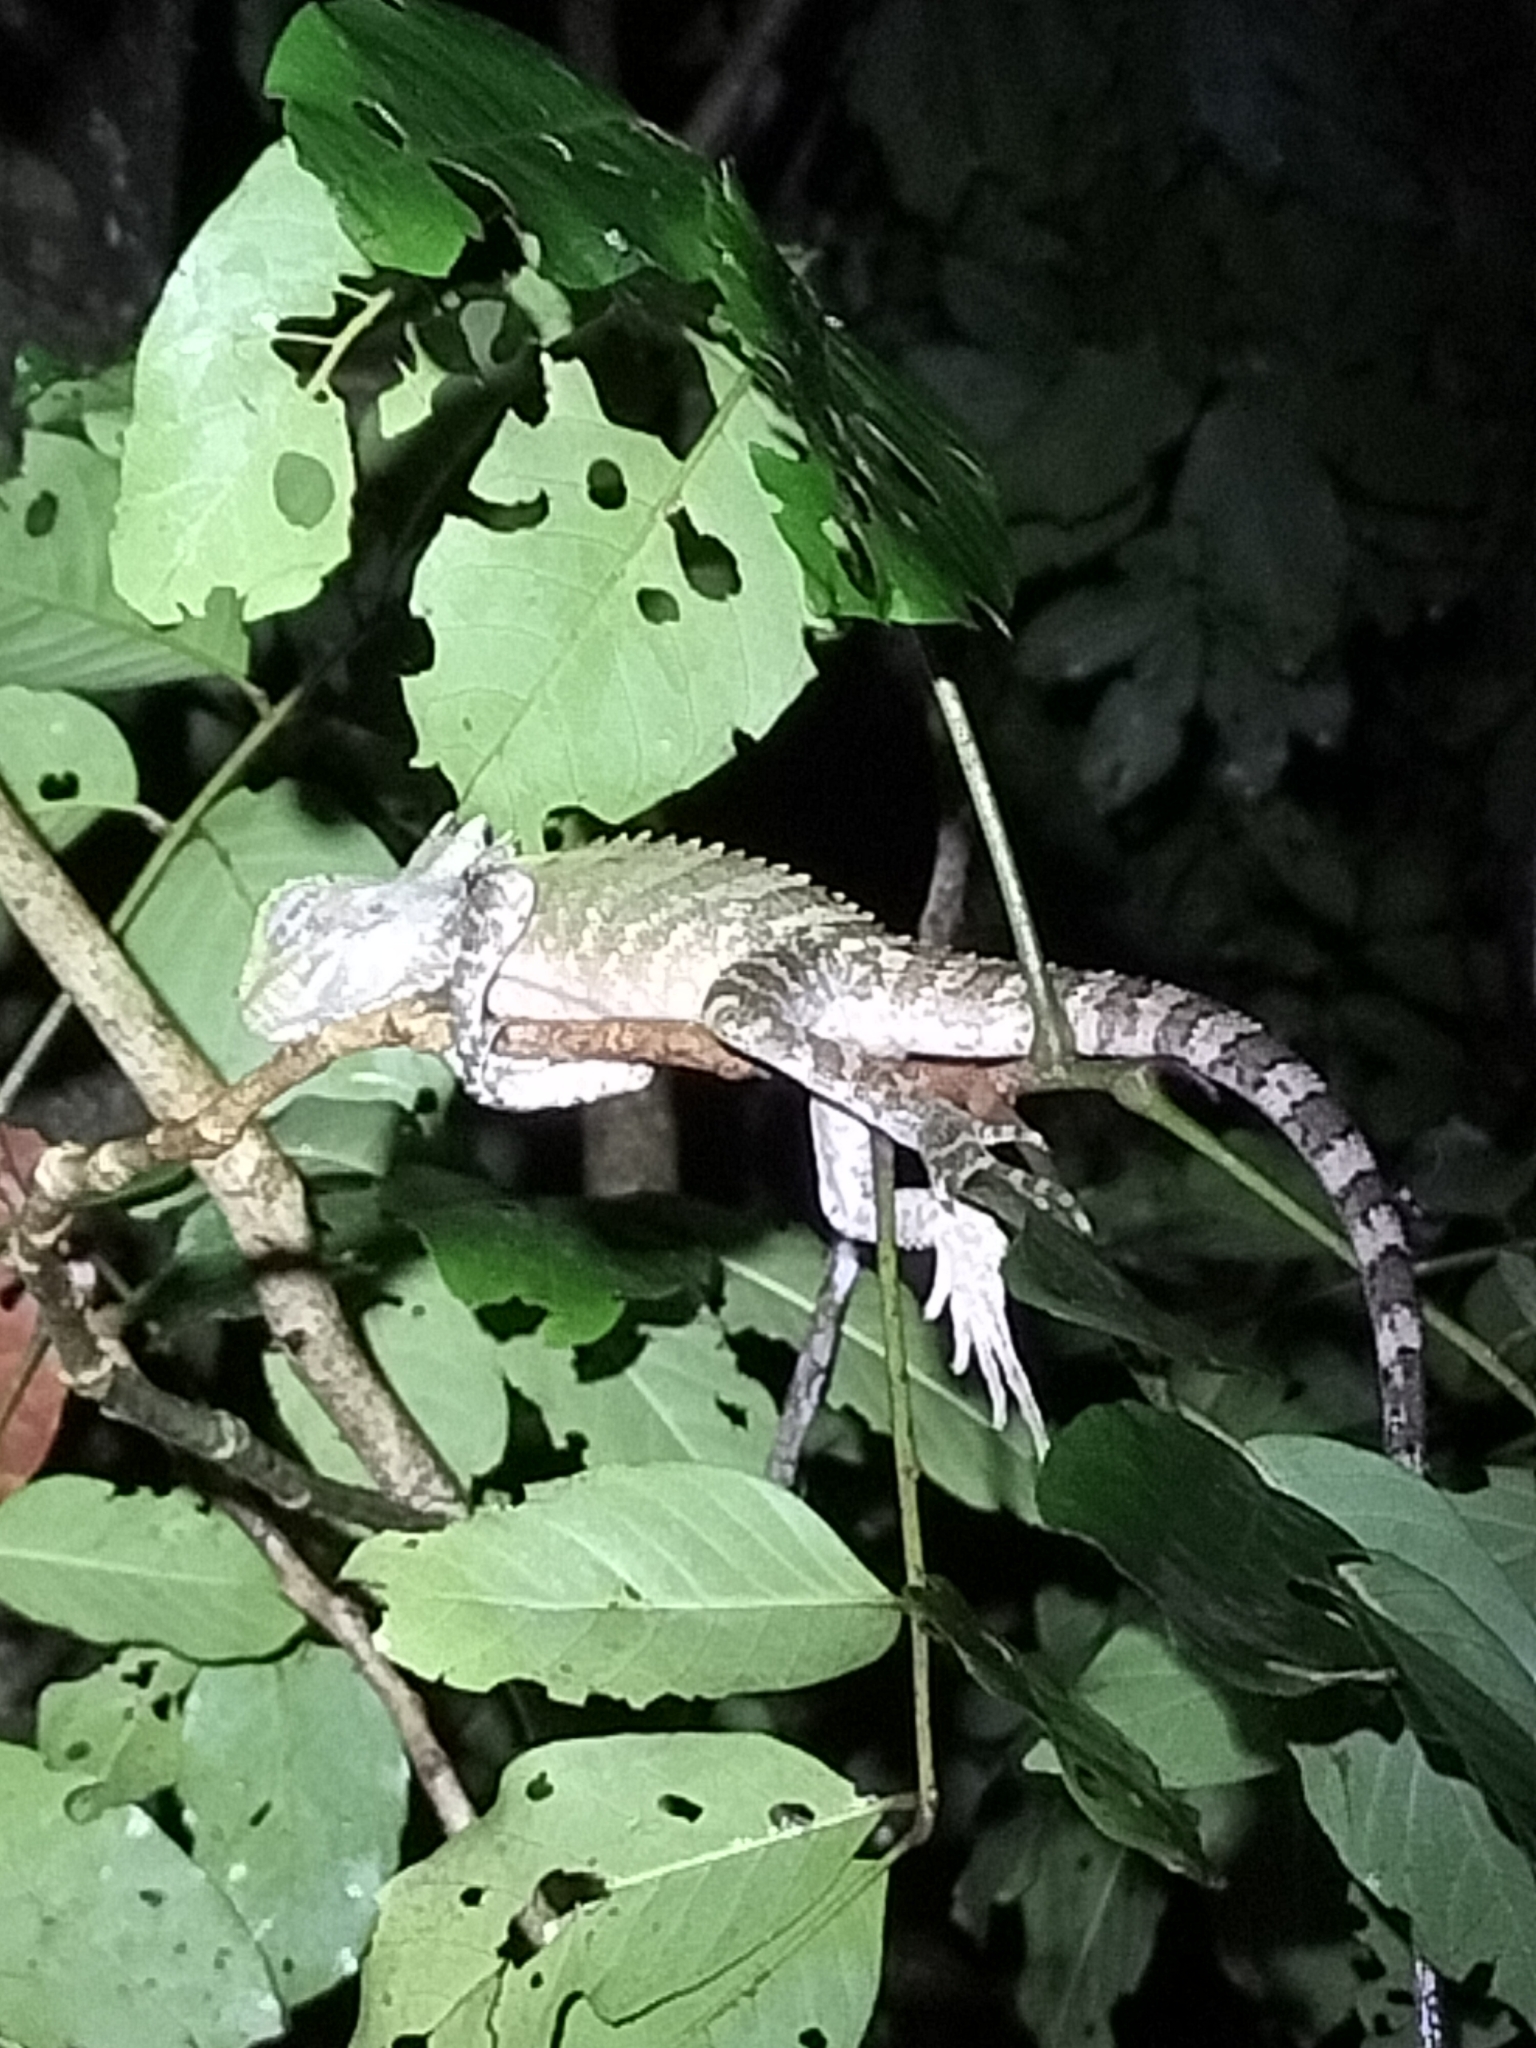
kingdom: Animalia
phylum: Chordata
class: Squamata
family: Agamidae
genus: Lophosaurus
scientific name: Lophosaurus boydii
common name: Boyd's forest dragon
